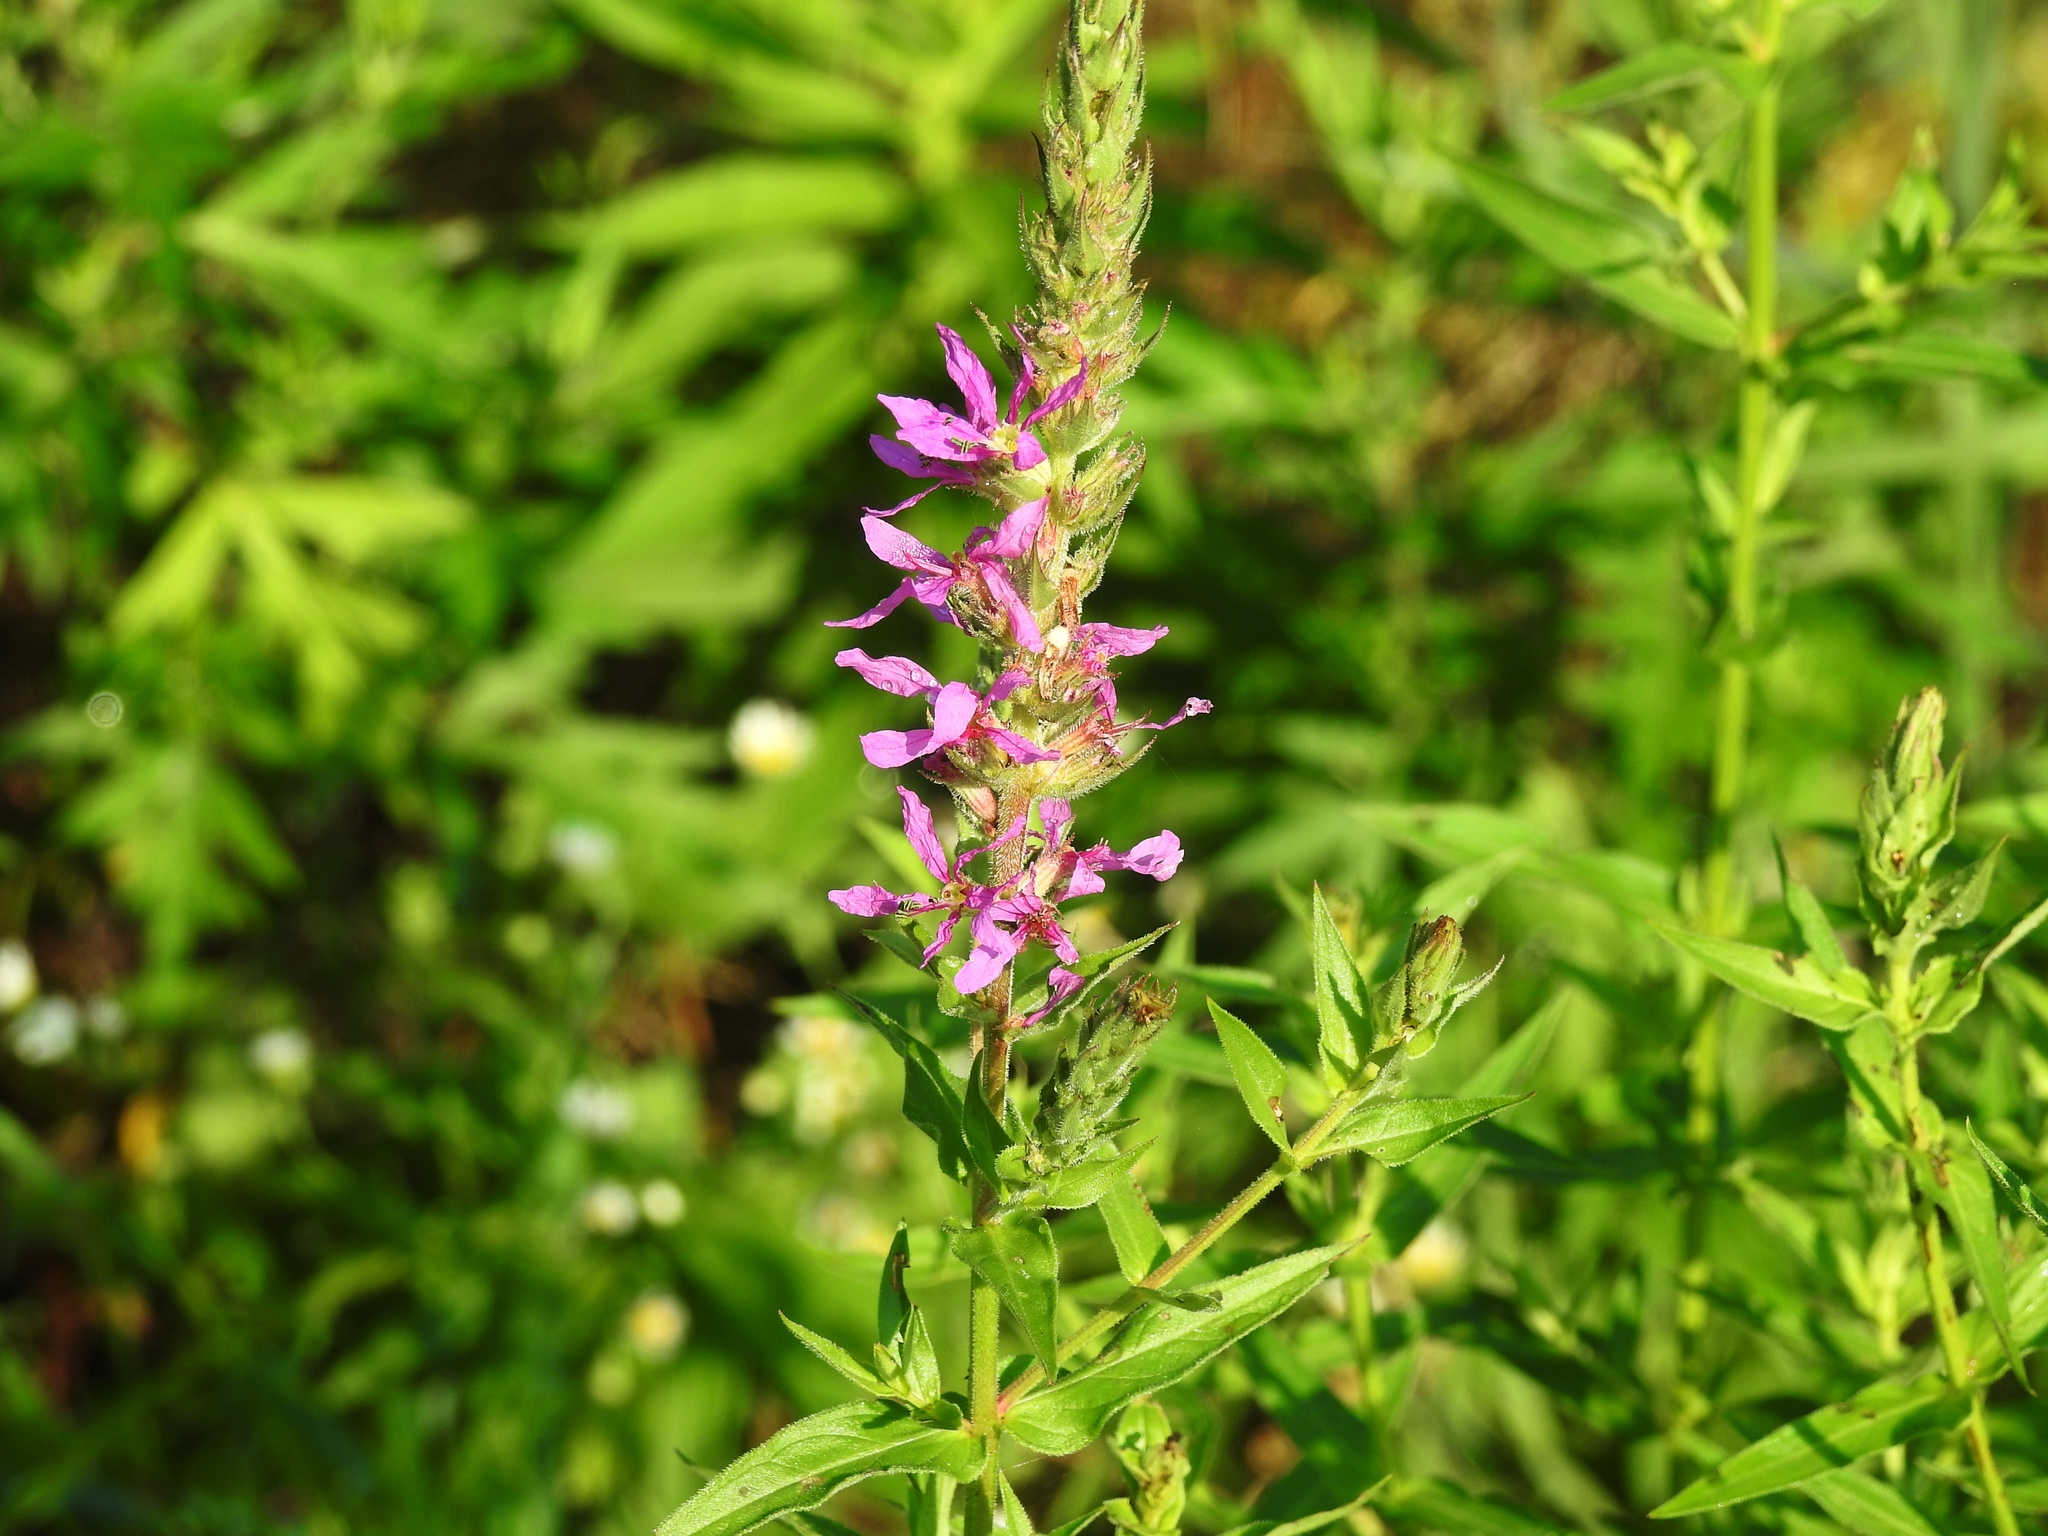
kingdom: Plantae
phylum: Tracheophyta
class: Magnoliopsida
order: Myrtales
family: Lythraceae
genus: Lythrum
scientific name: Lythrum salicaria
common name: Purple loosestrife
